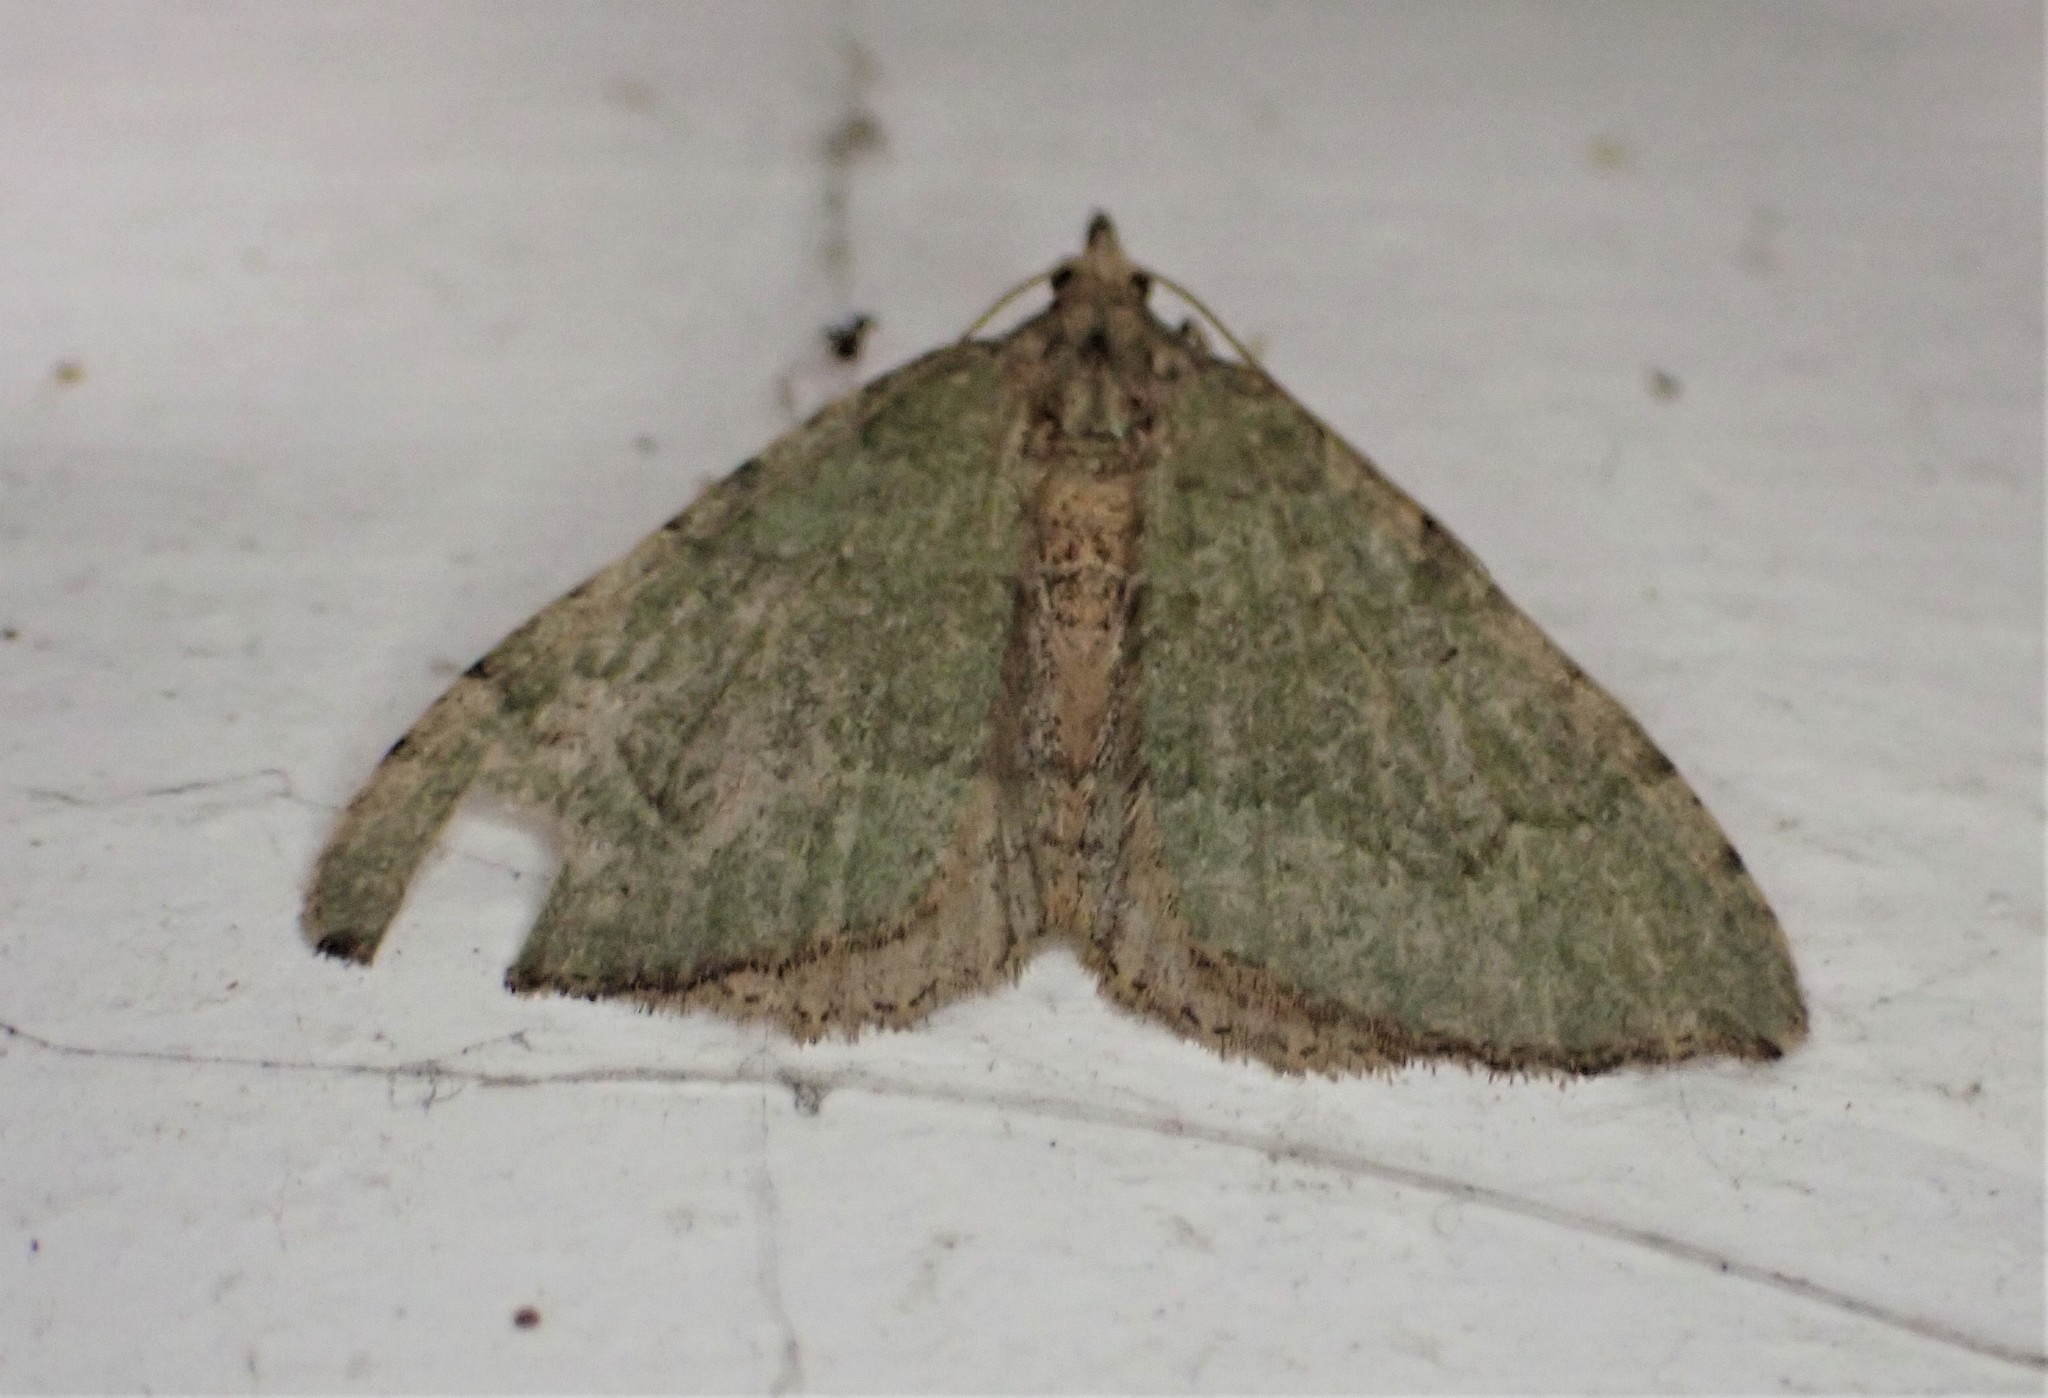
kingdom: Animalia
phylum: Arthropoda
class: Insecta
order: Lepidoptera
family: Geometridae
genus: Epyaxa
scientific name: Epyaxa rosearia
